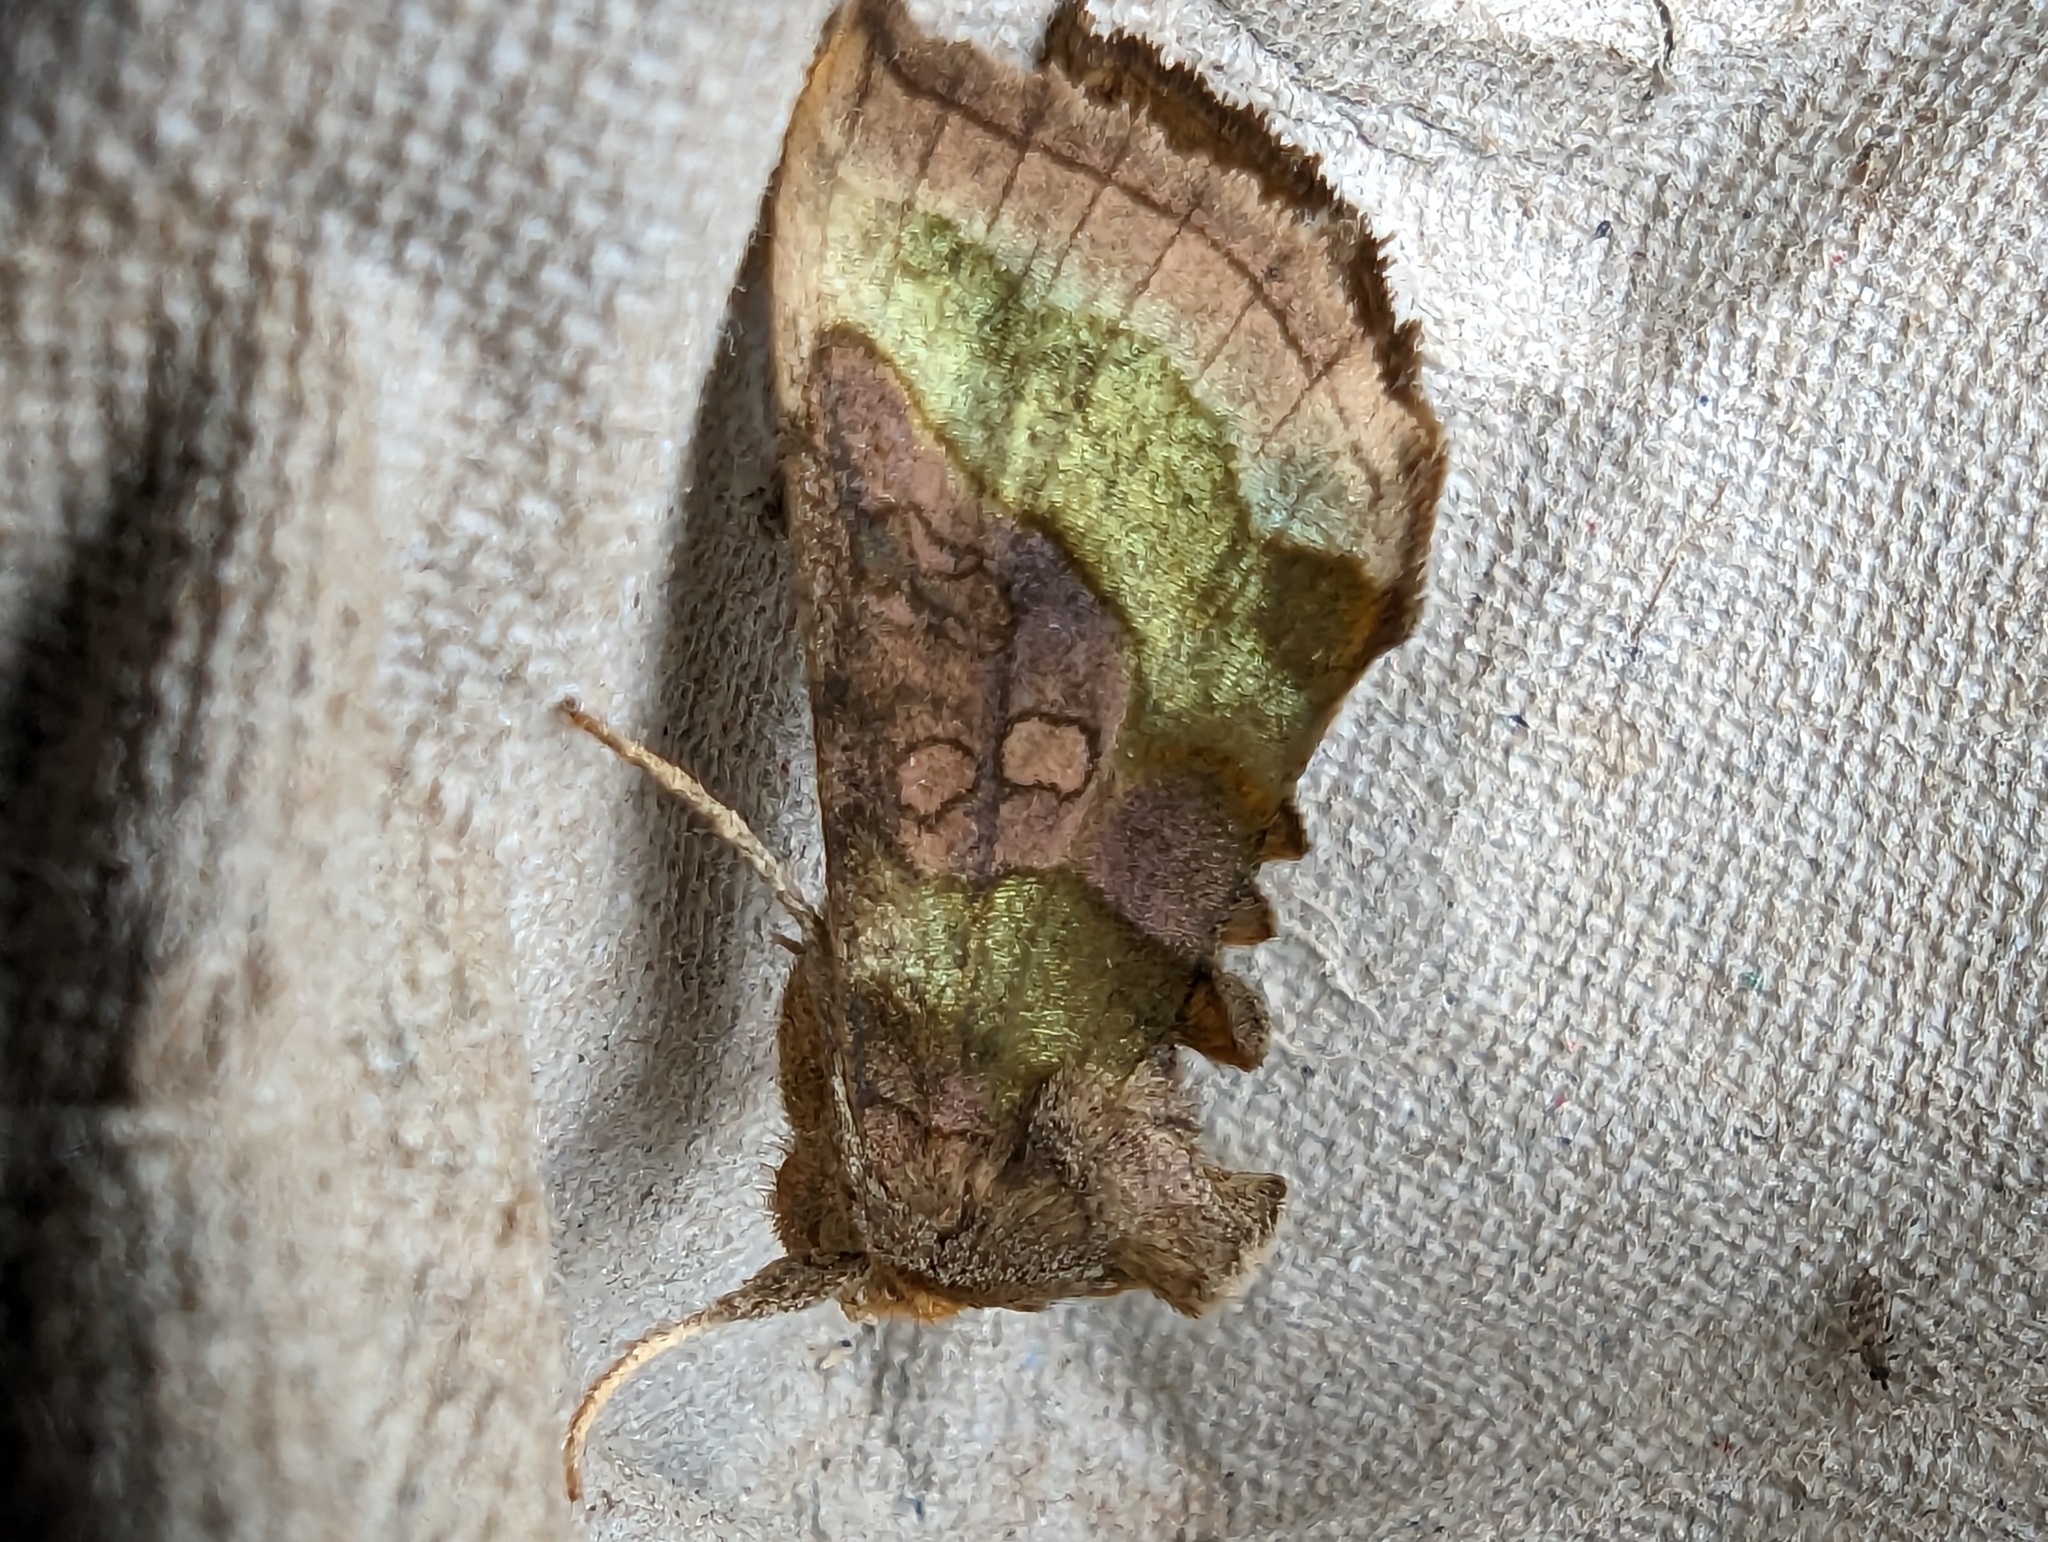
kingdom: Animalia
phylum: Arthropoda
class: Insecta
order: Lepidoptera
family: Noctuidae
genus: Diachrysia
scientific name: Diachrysia chrysitis
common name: Burnished brass
